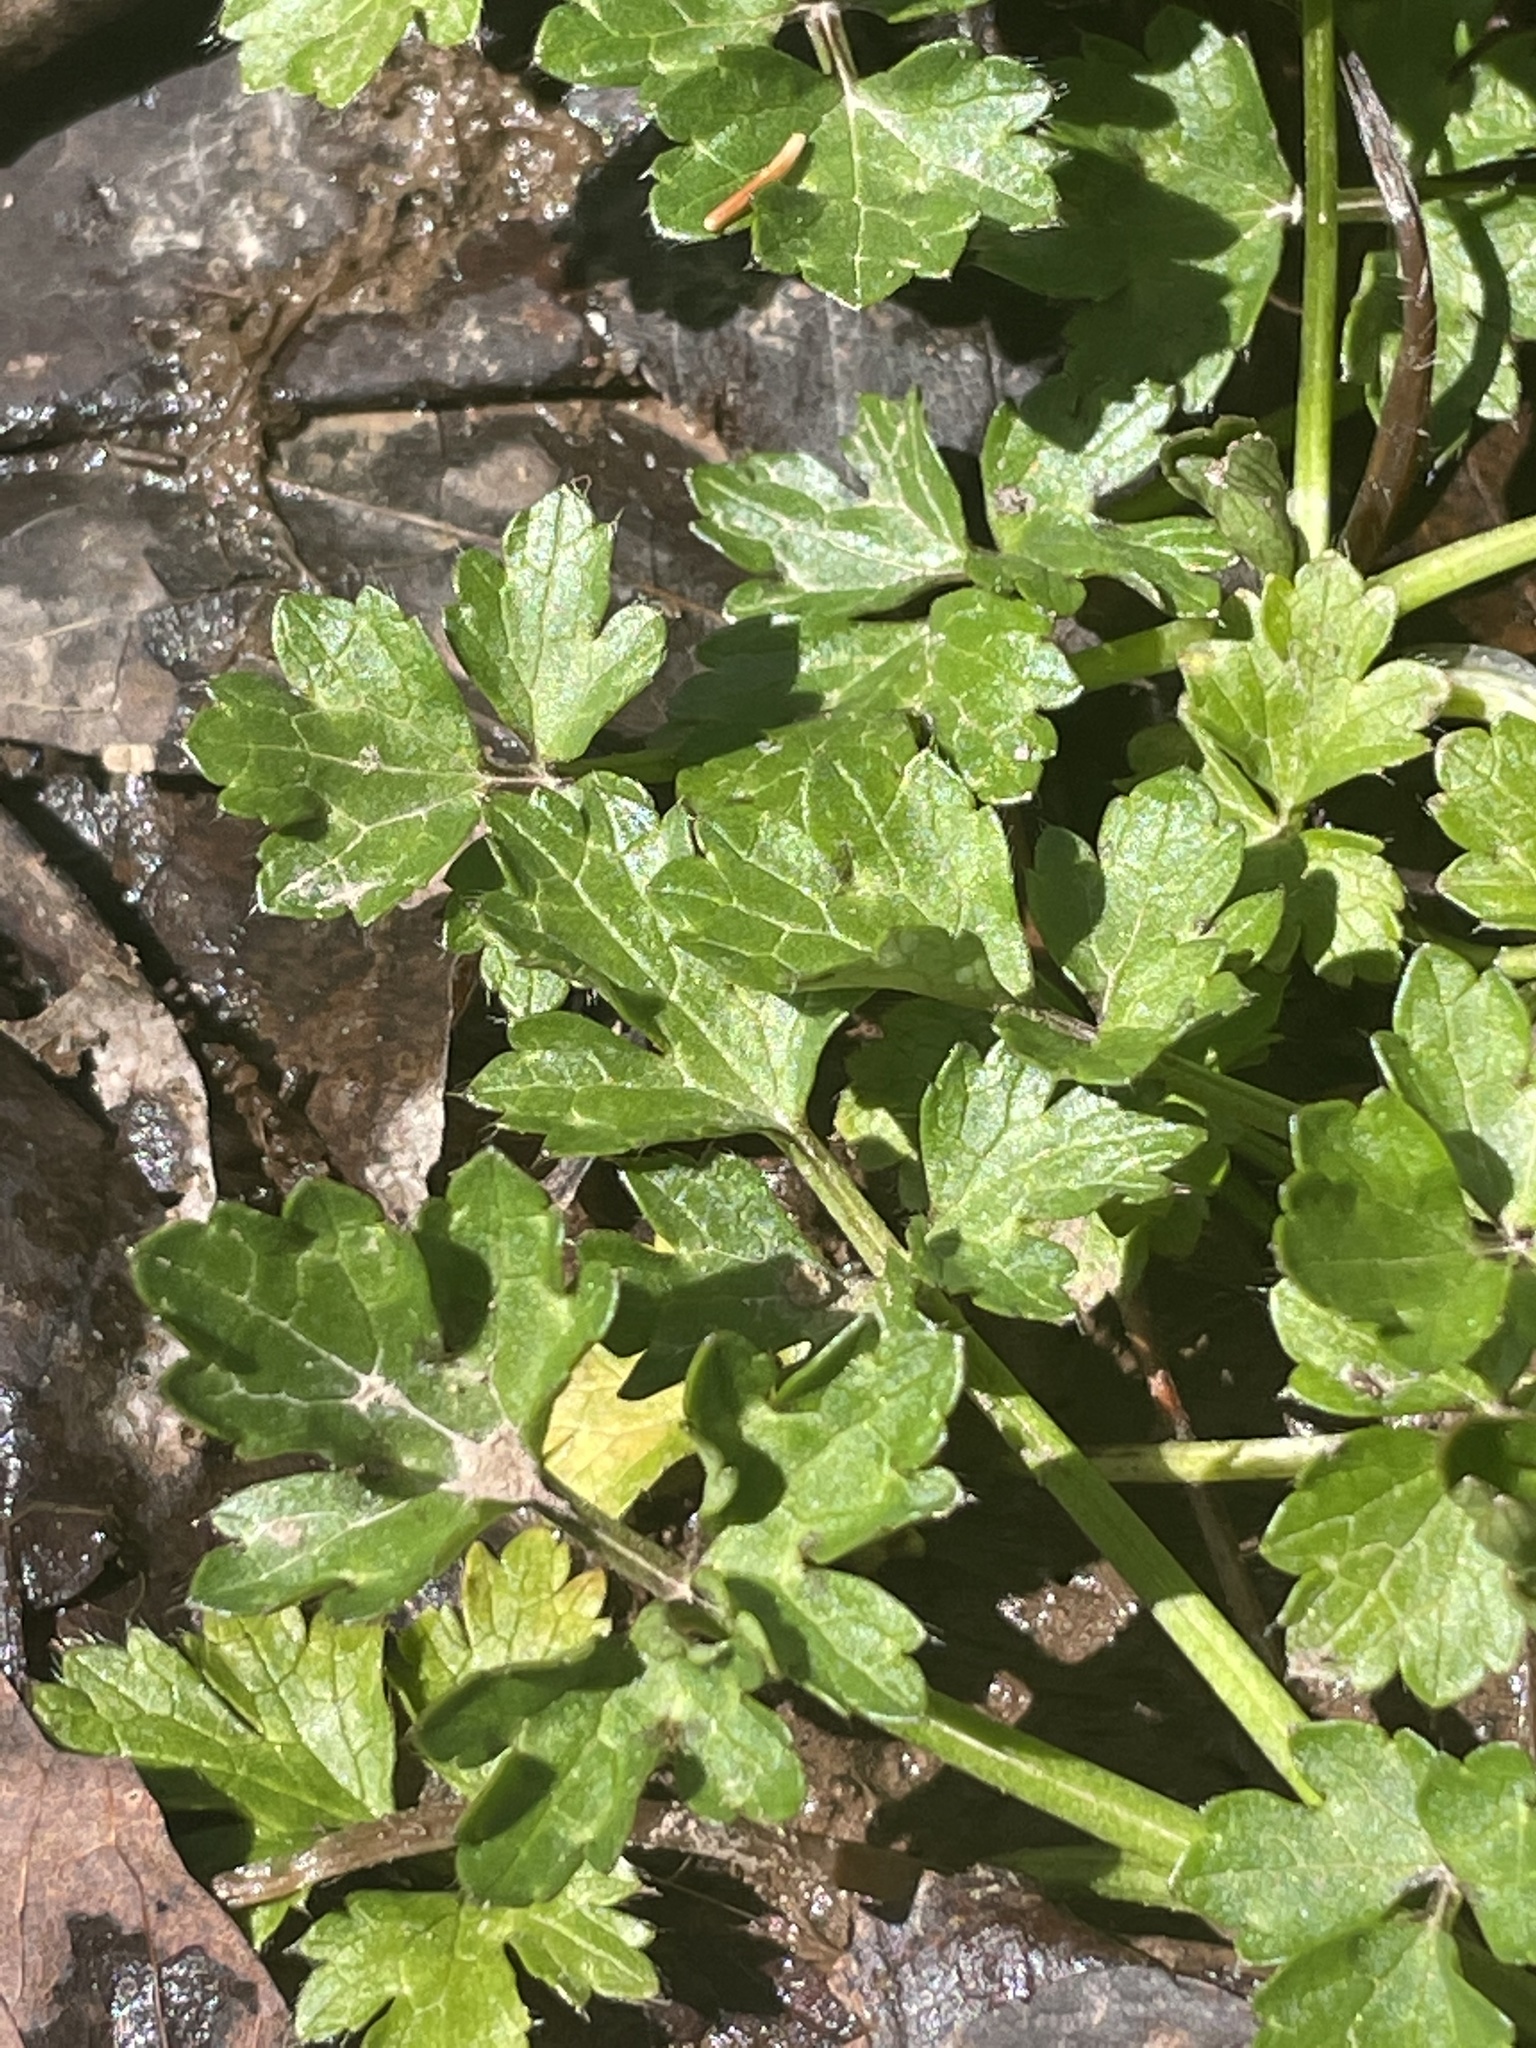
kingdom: Plantae
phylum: Tracheophyta
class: Magnoliopsida
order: Ranunculales
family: Ranunculaceae
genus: Ranunculus
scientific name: Ranunculus repens
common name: Creeping buttercup
